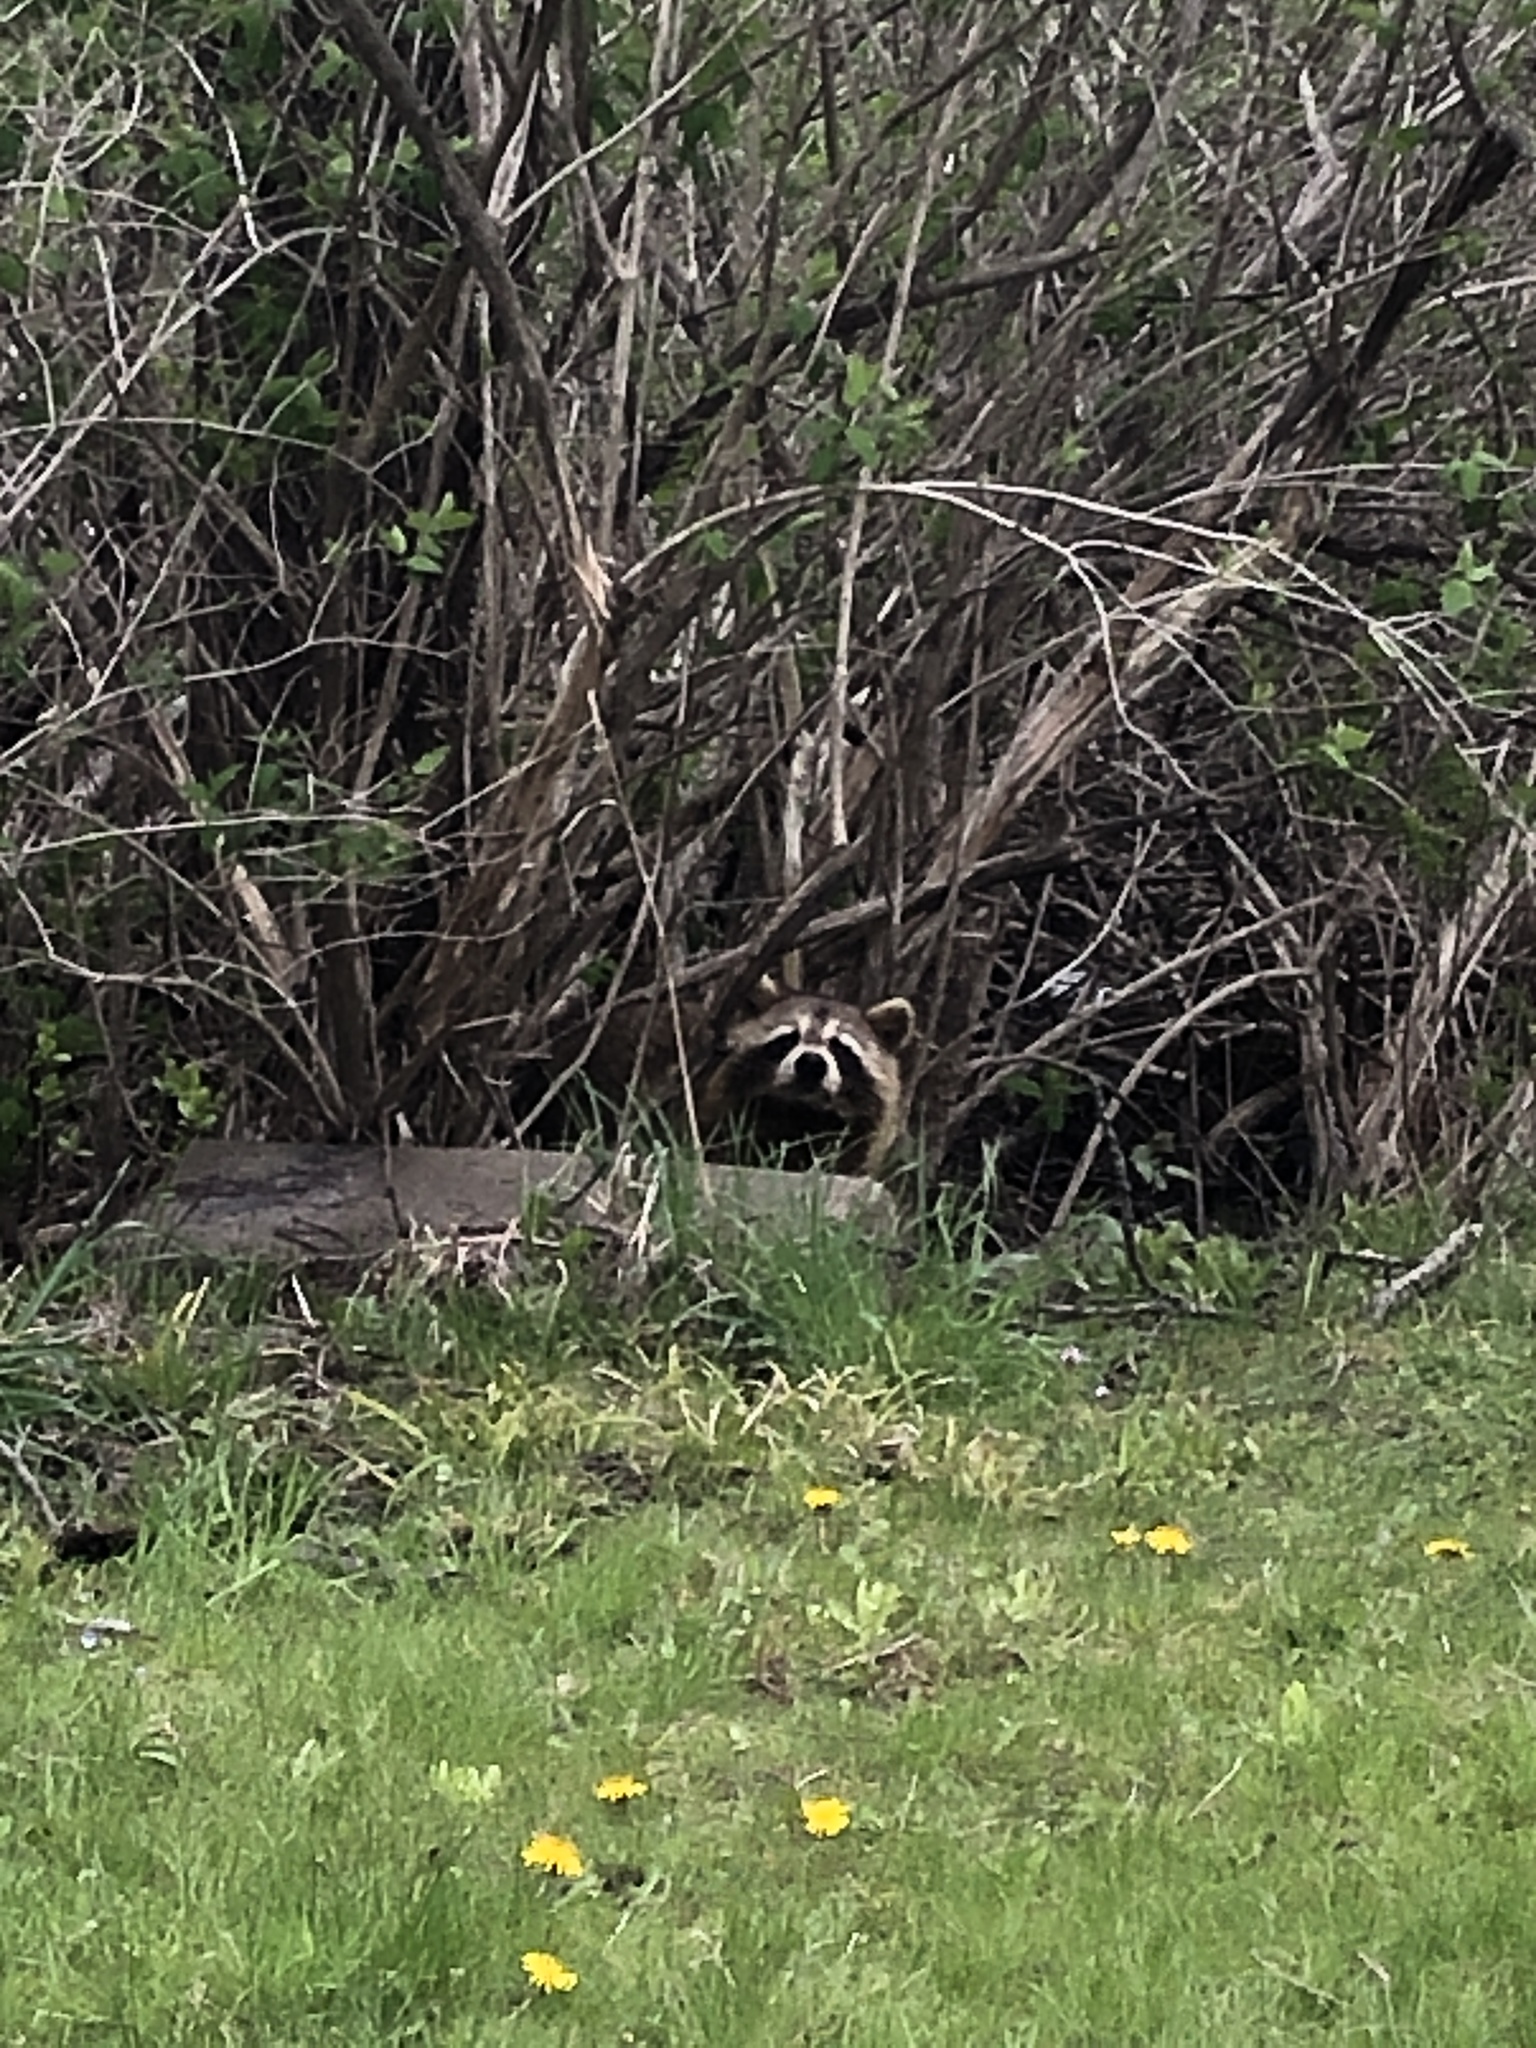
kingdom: Animalia
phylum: Chordata
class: Mammalia
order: Carnivora
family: Procyonidae
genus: Procyon
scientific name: Procyon lotor
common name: Raccoon
